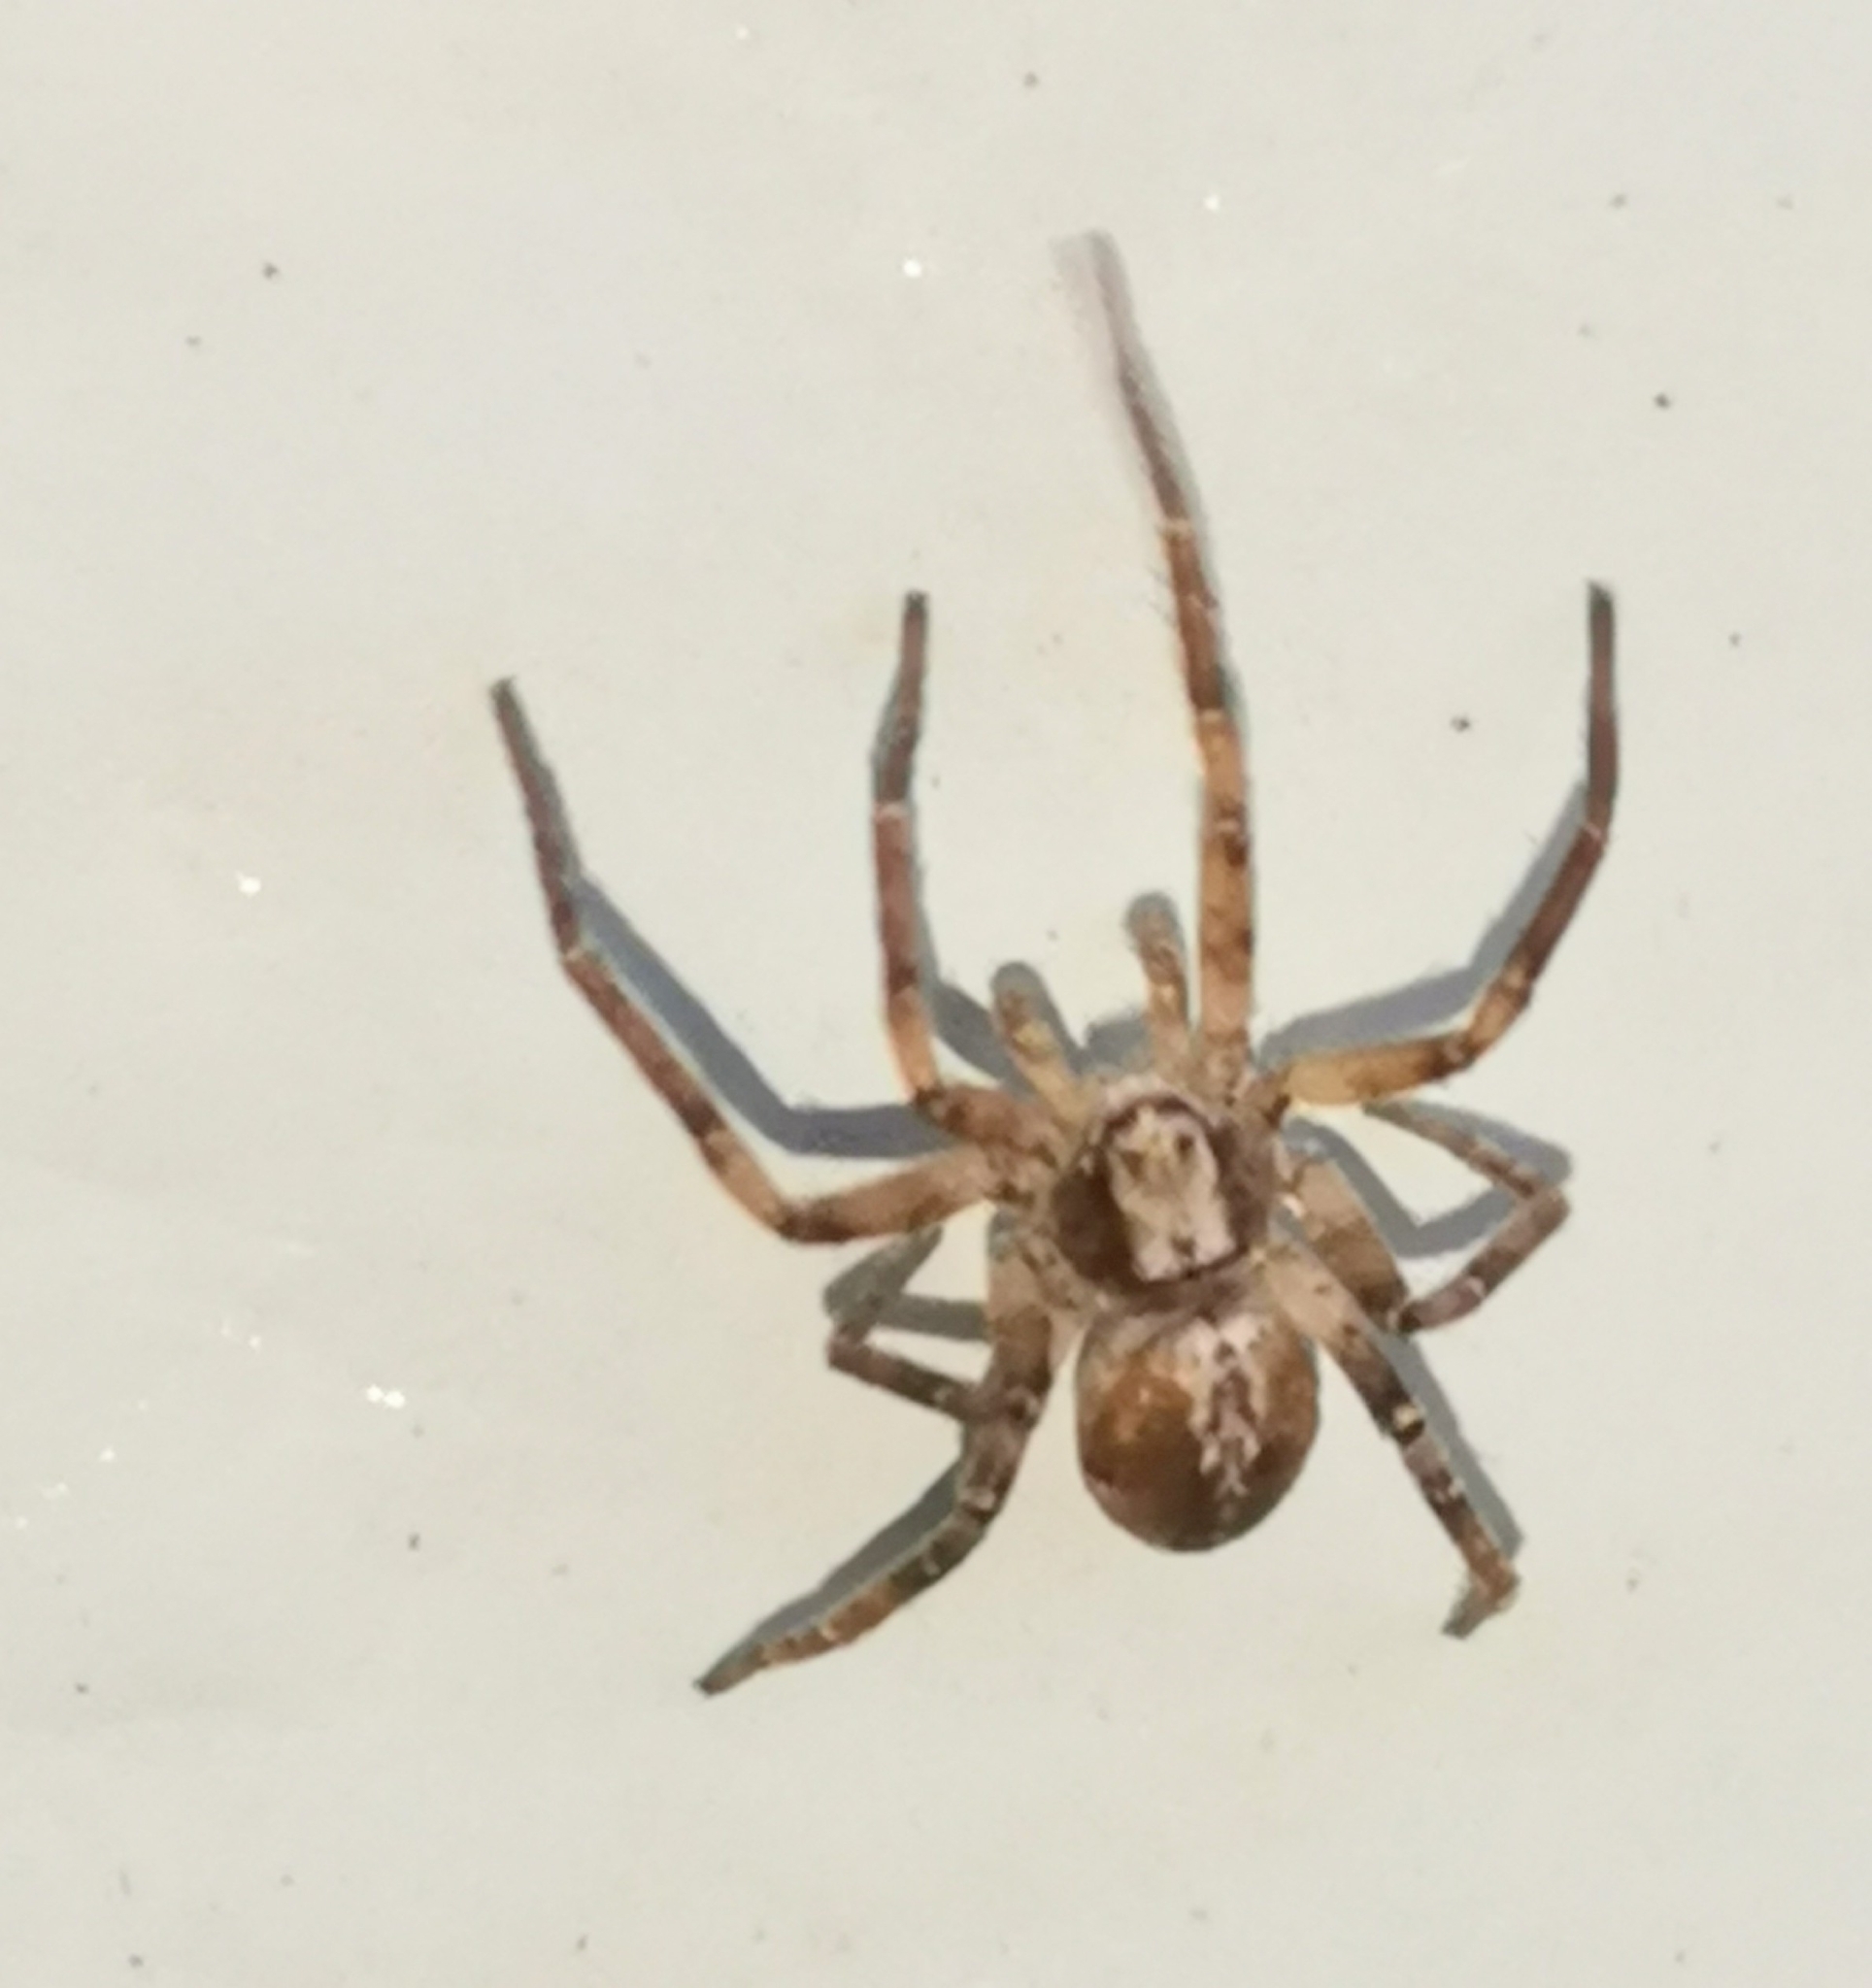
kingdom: Animalia
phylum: Arthropoda
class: Arachnida
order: Araneae
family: Philodromidae
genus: Philodromus
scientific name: Philodromus
